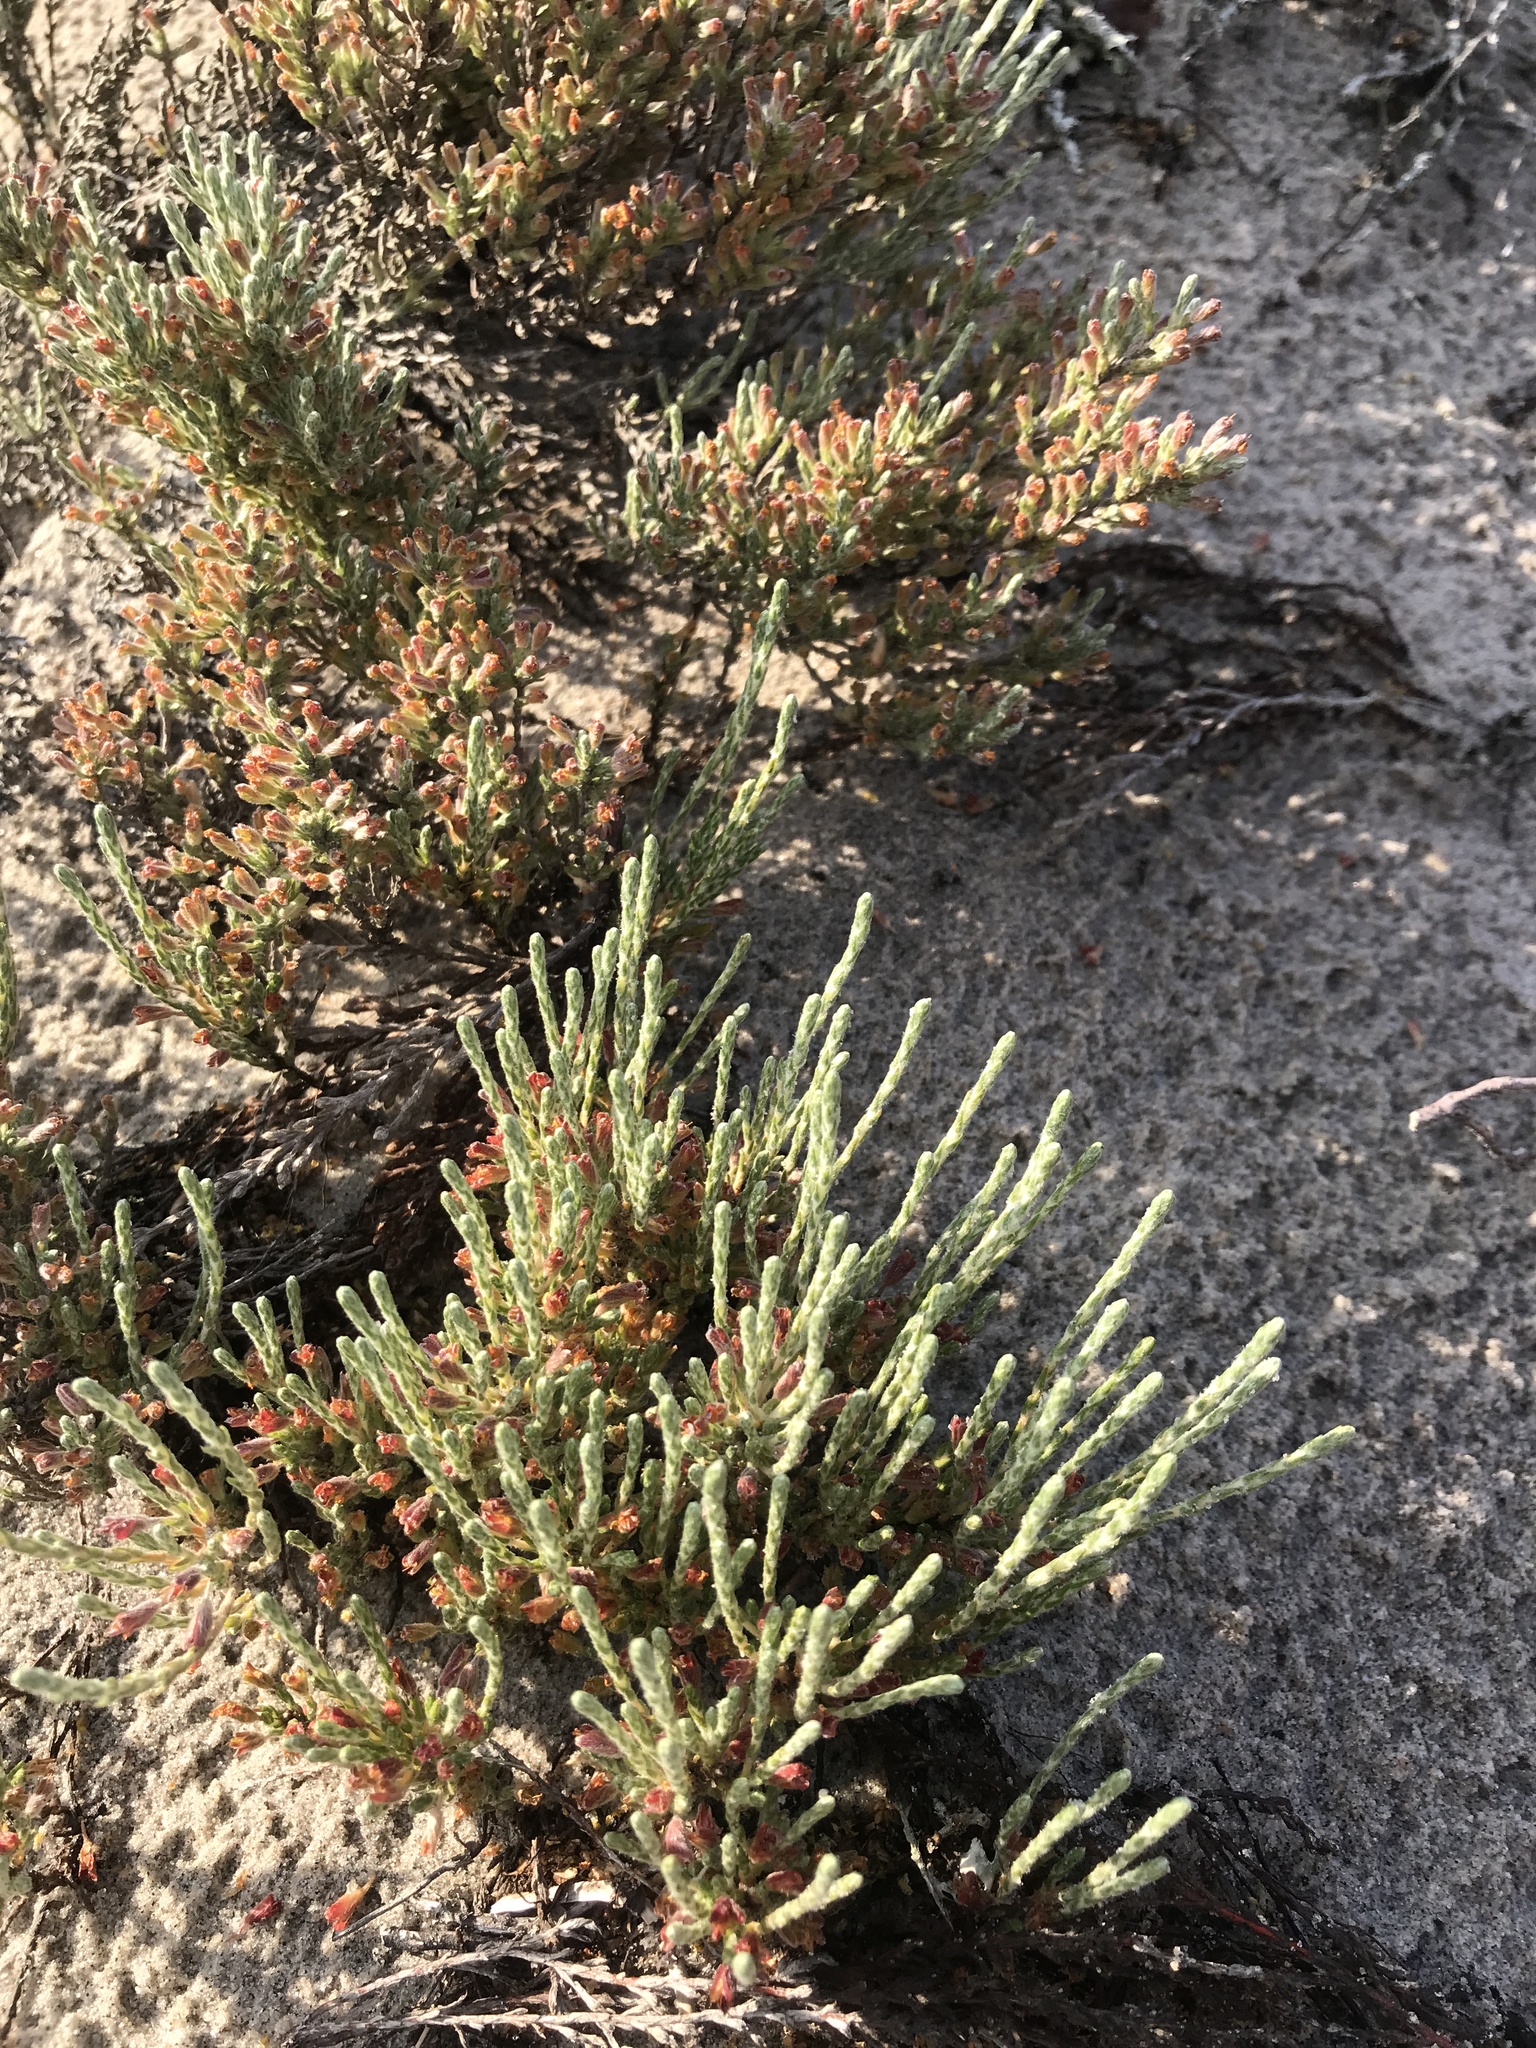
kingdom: Plantae
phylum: Tracheophyta
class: Magnoliopsida
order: Malvales
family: Cistaceae
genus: Hudsonia
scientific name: Hudsonia tomentosa
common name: Beach-heath
